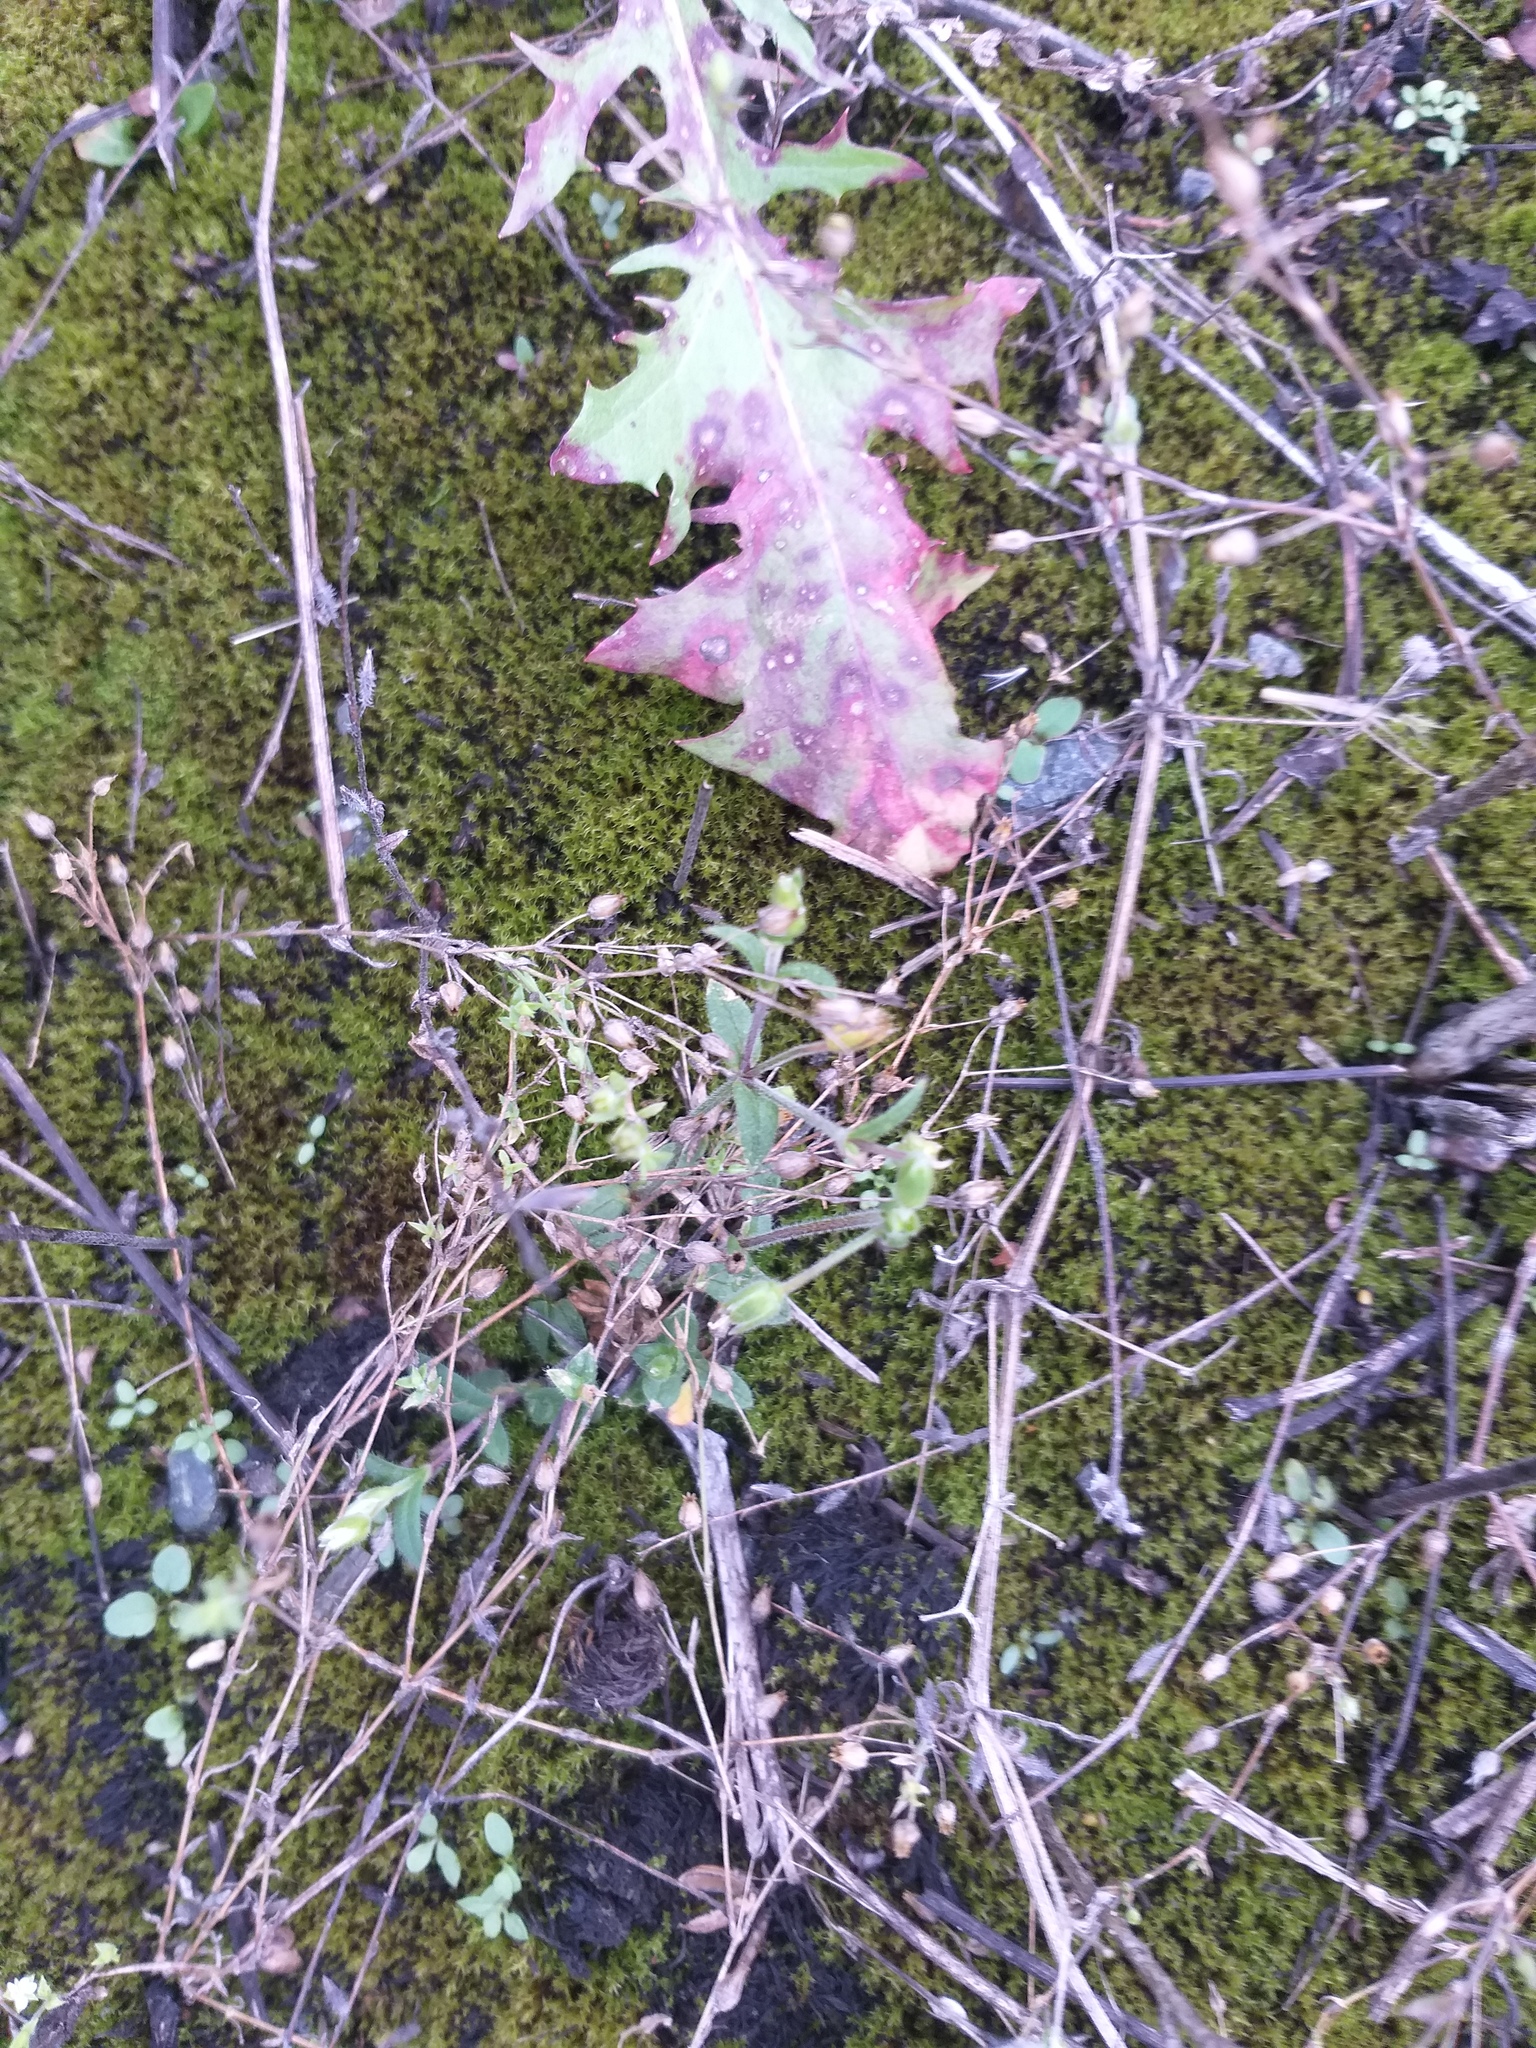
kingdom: Plantae
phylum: Tracheophyta
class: Magnoliopsida
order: Caryophyllales
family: Caryophyllaceae
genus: Cerastium
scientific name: Cerastium holosteoides
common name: Big chickweed
